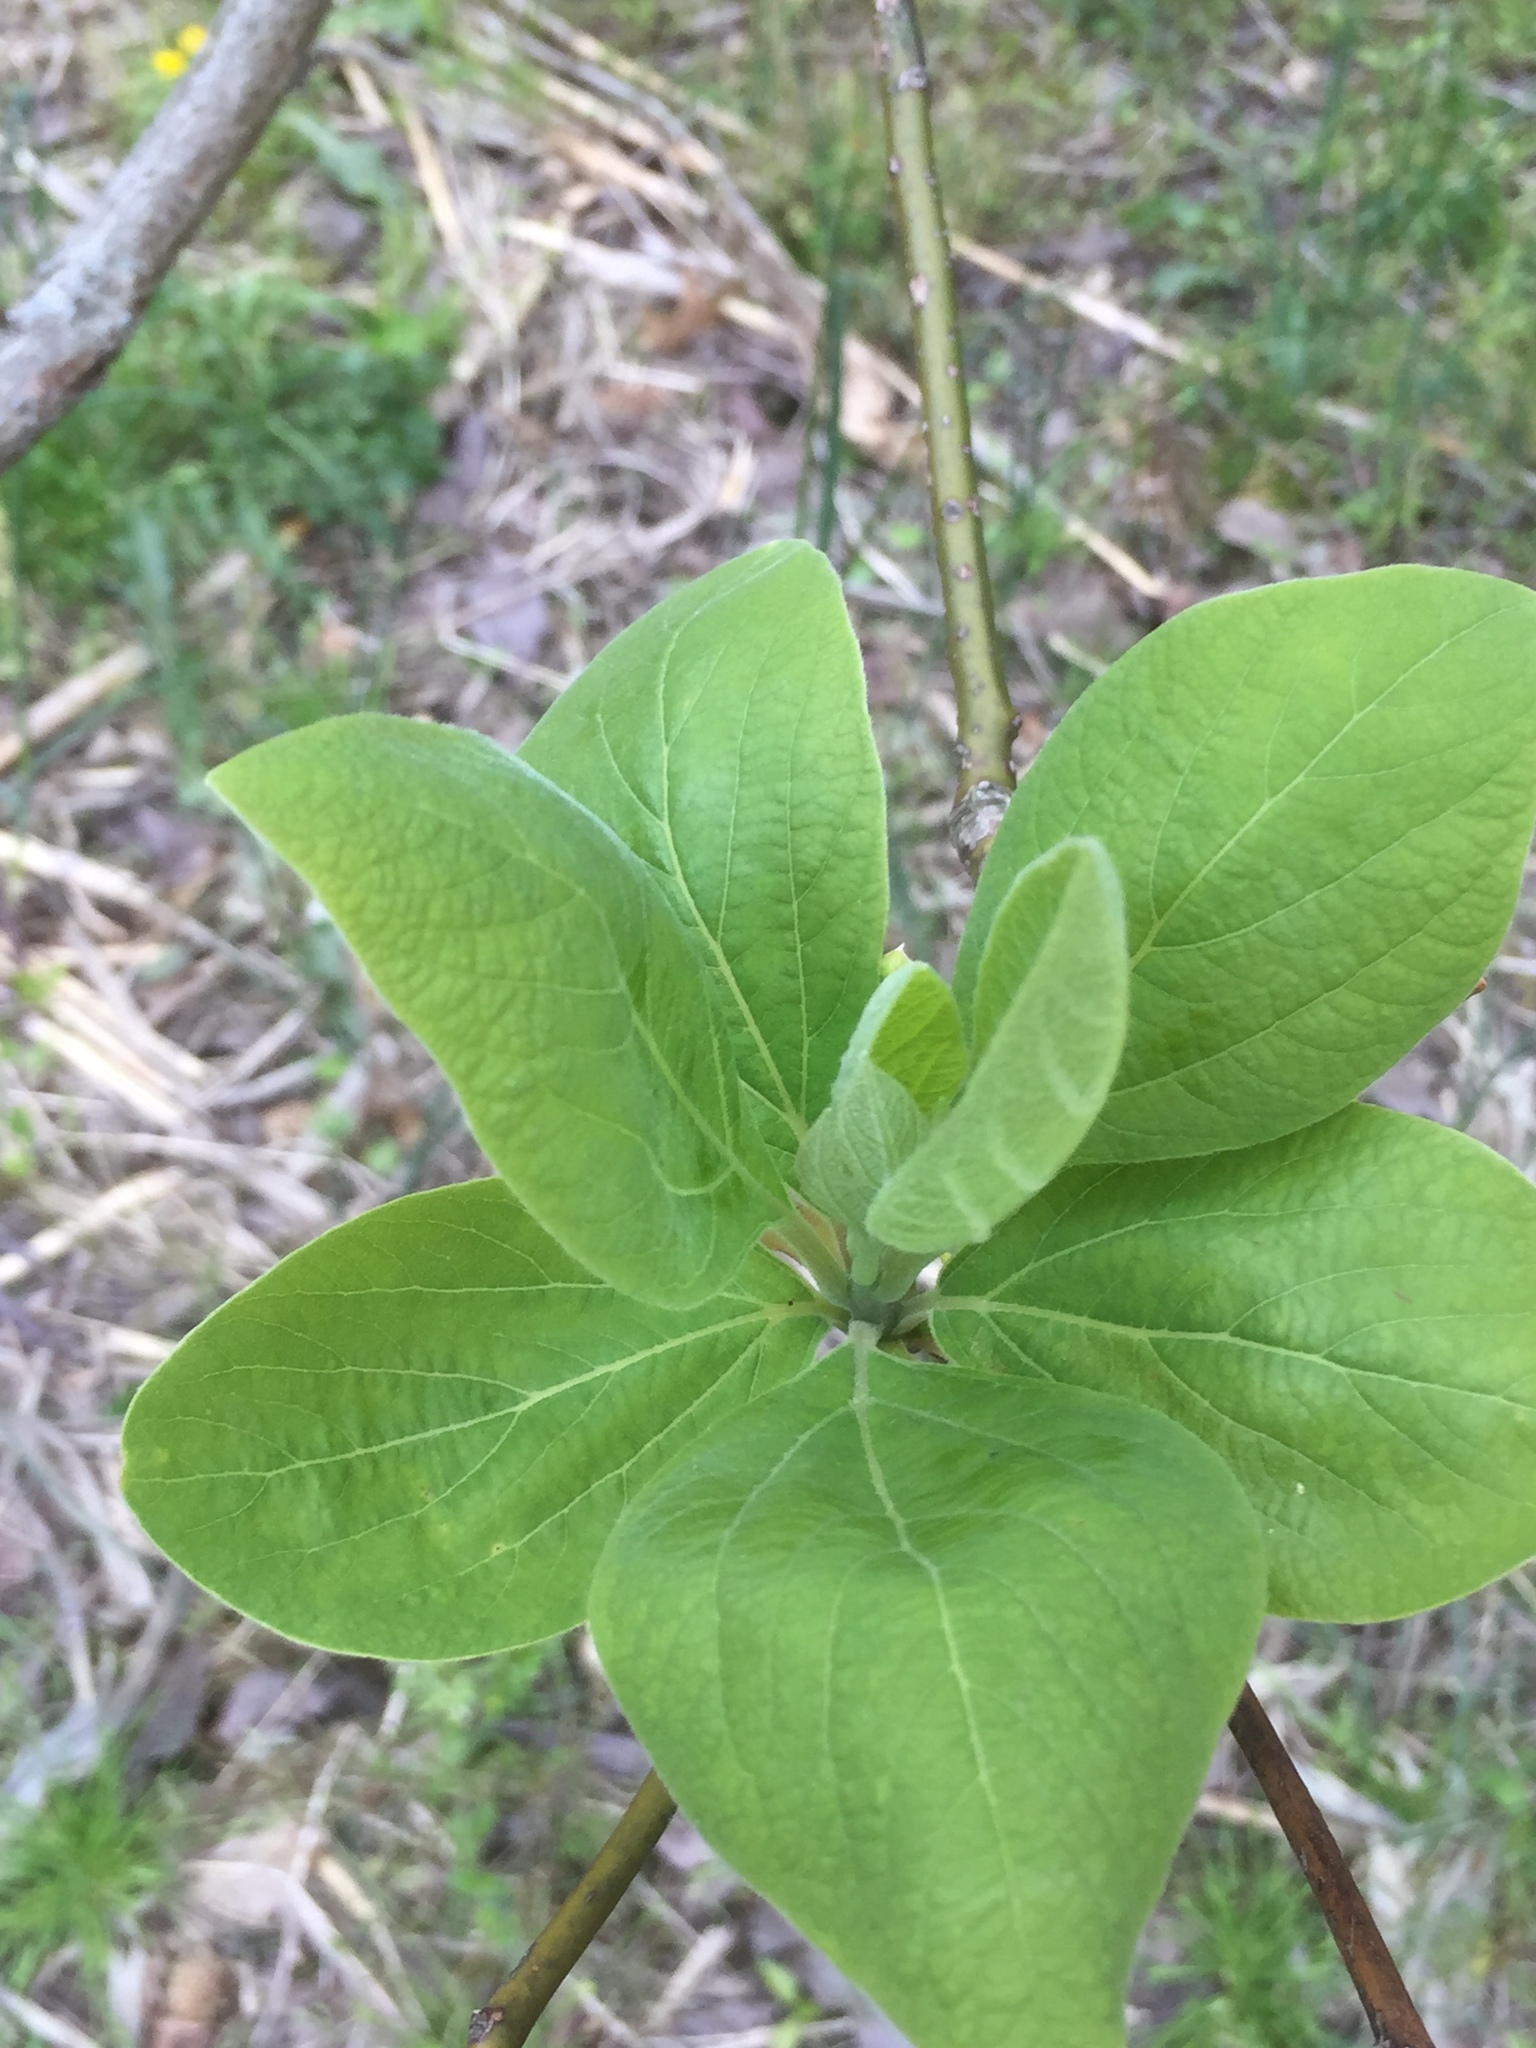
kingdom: Plantae
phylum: Tracheophyta
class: Magnoliopsida
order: Laurales
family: Lauraceae
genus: Sassafras
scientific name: Sassafras albidum
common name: Sassafras
